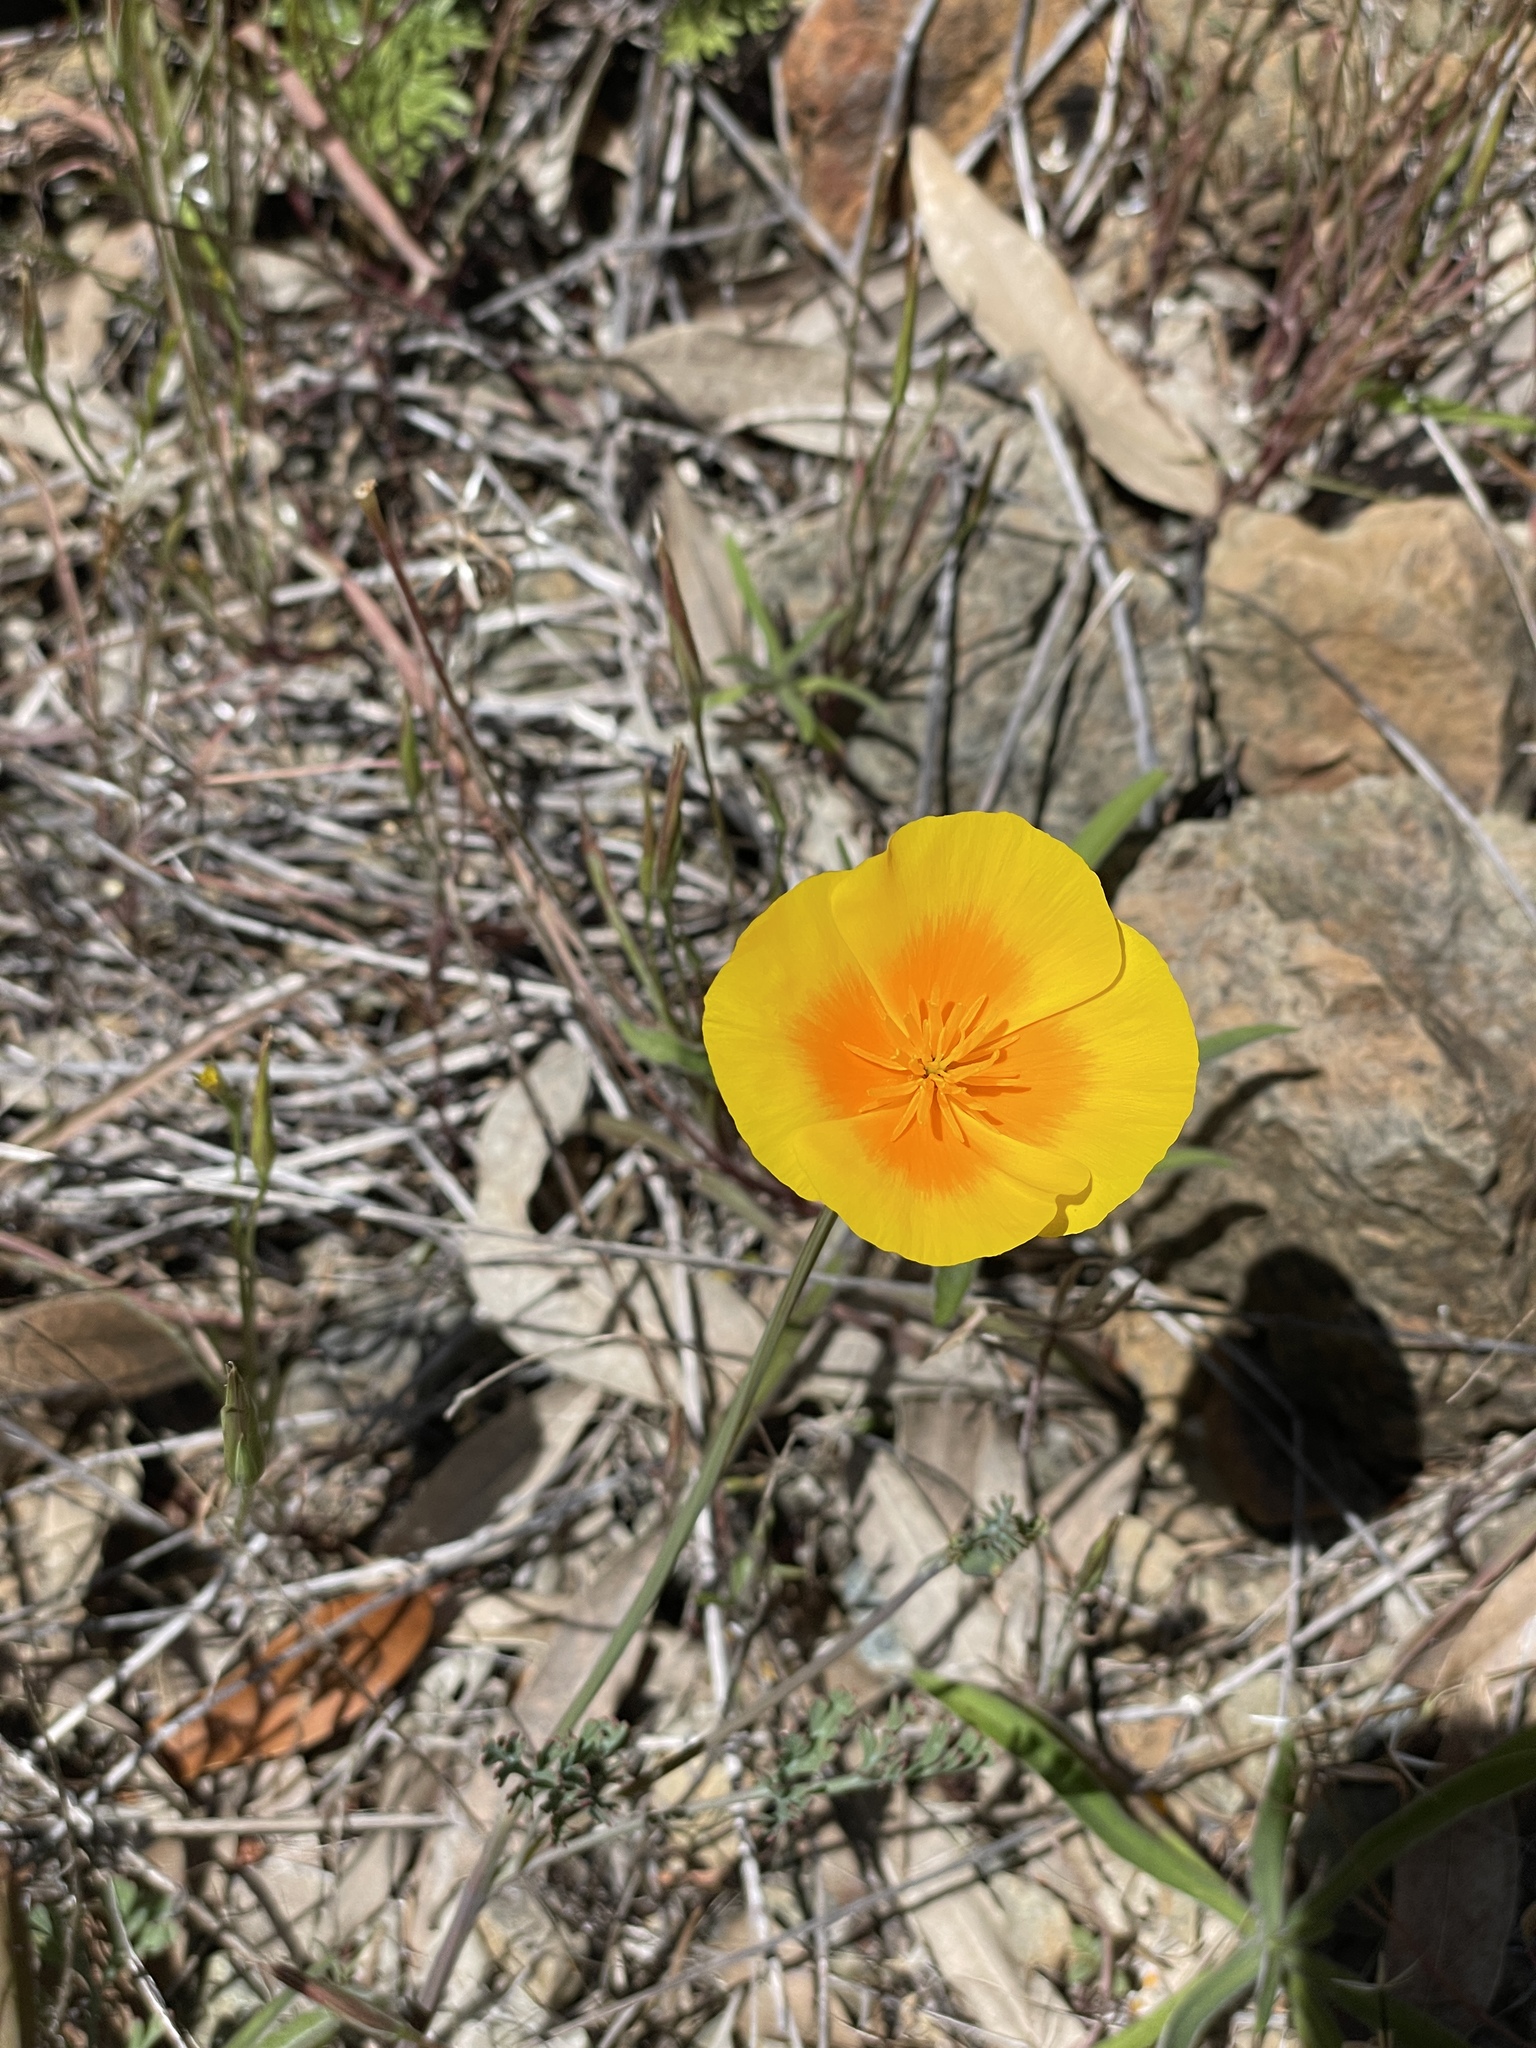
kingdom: Plantae
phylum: Tracheophyta
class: Magnoliopsida
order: Ranunculales
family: Papaveraceae
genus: Eschscholzia
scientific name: Eschscholzia californica
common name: California poppy
